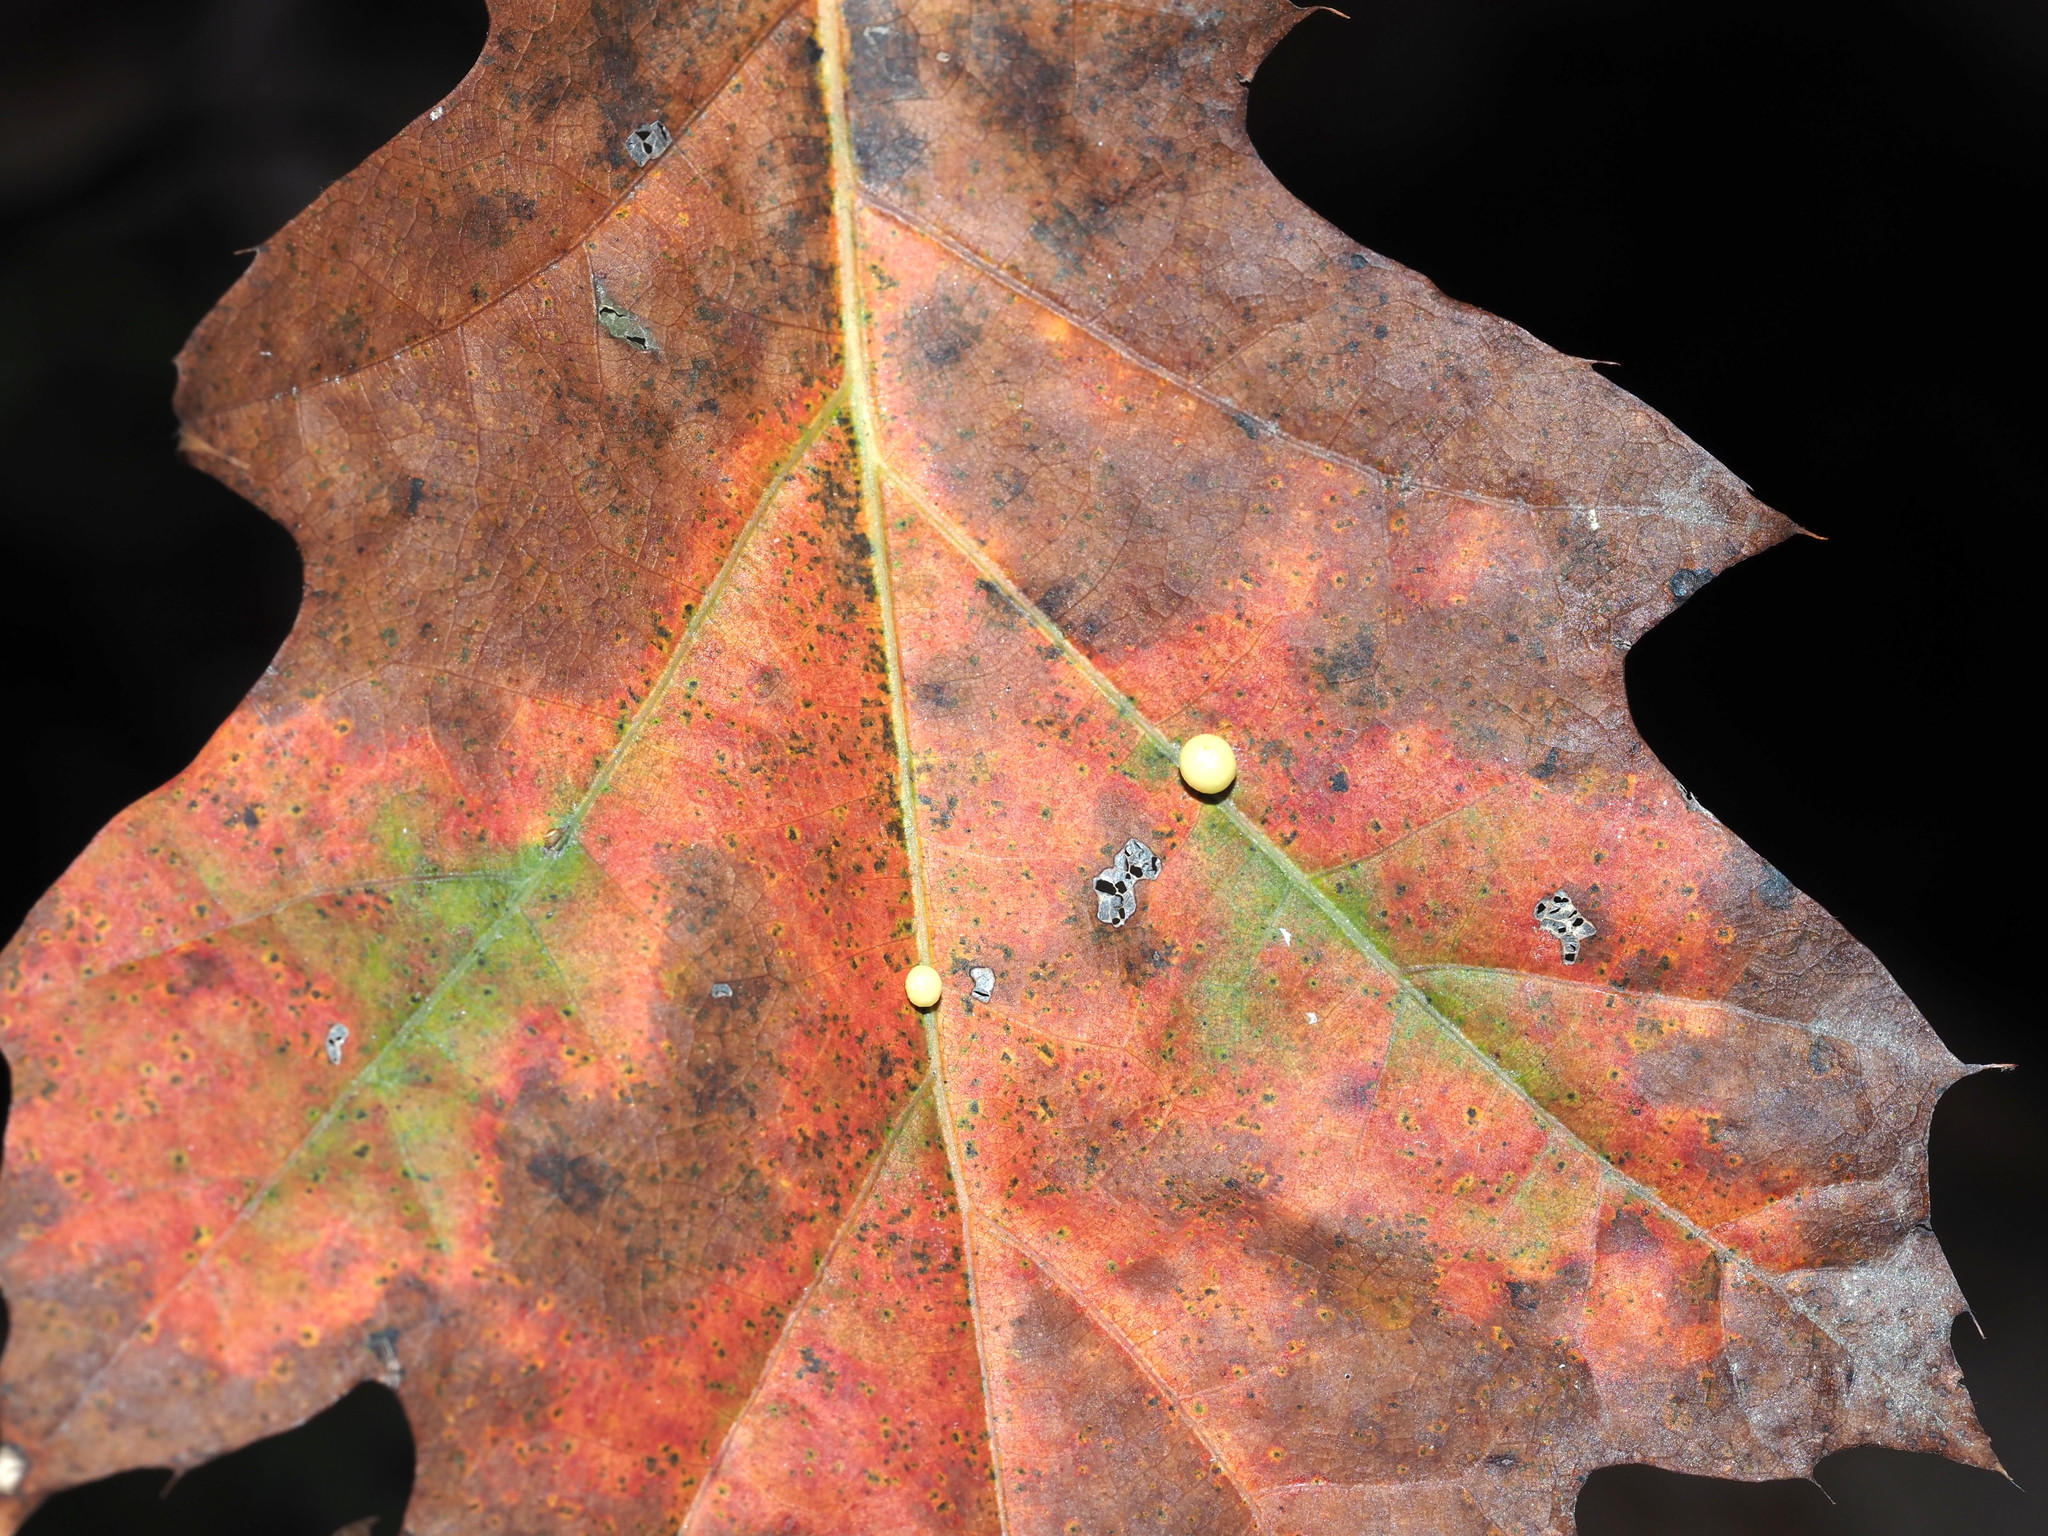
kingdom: Animalia
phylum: Arthropoda
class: Insecta
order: Hymenoptera
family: Cynipidae
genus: Zopheroteras
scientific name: Zopheroteras
